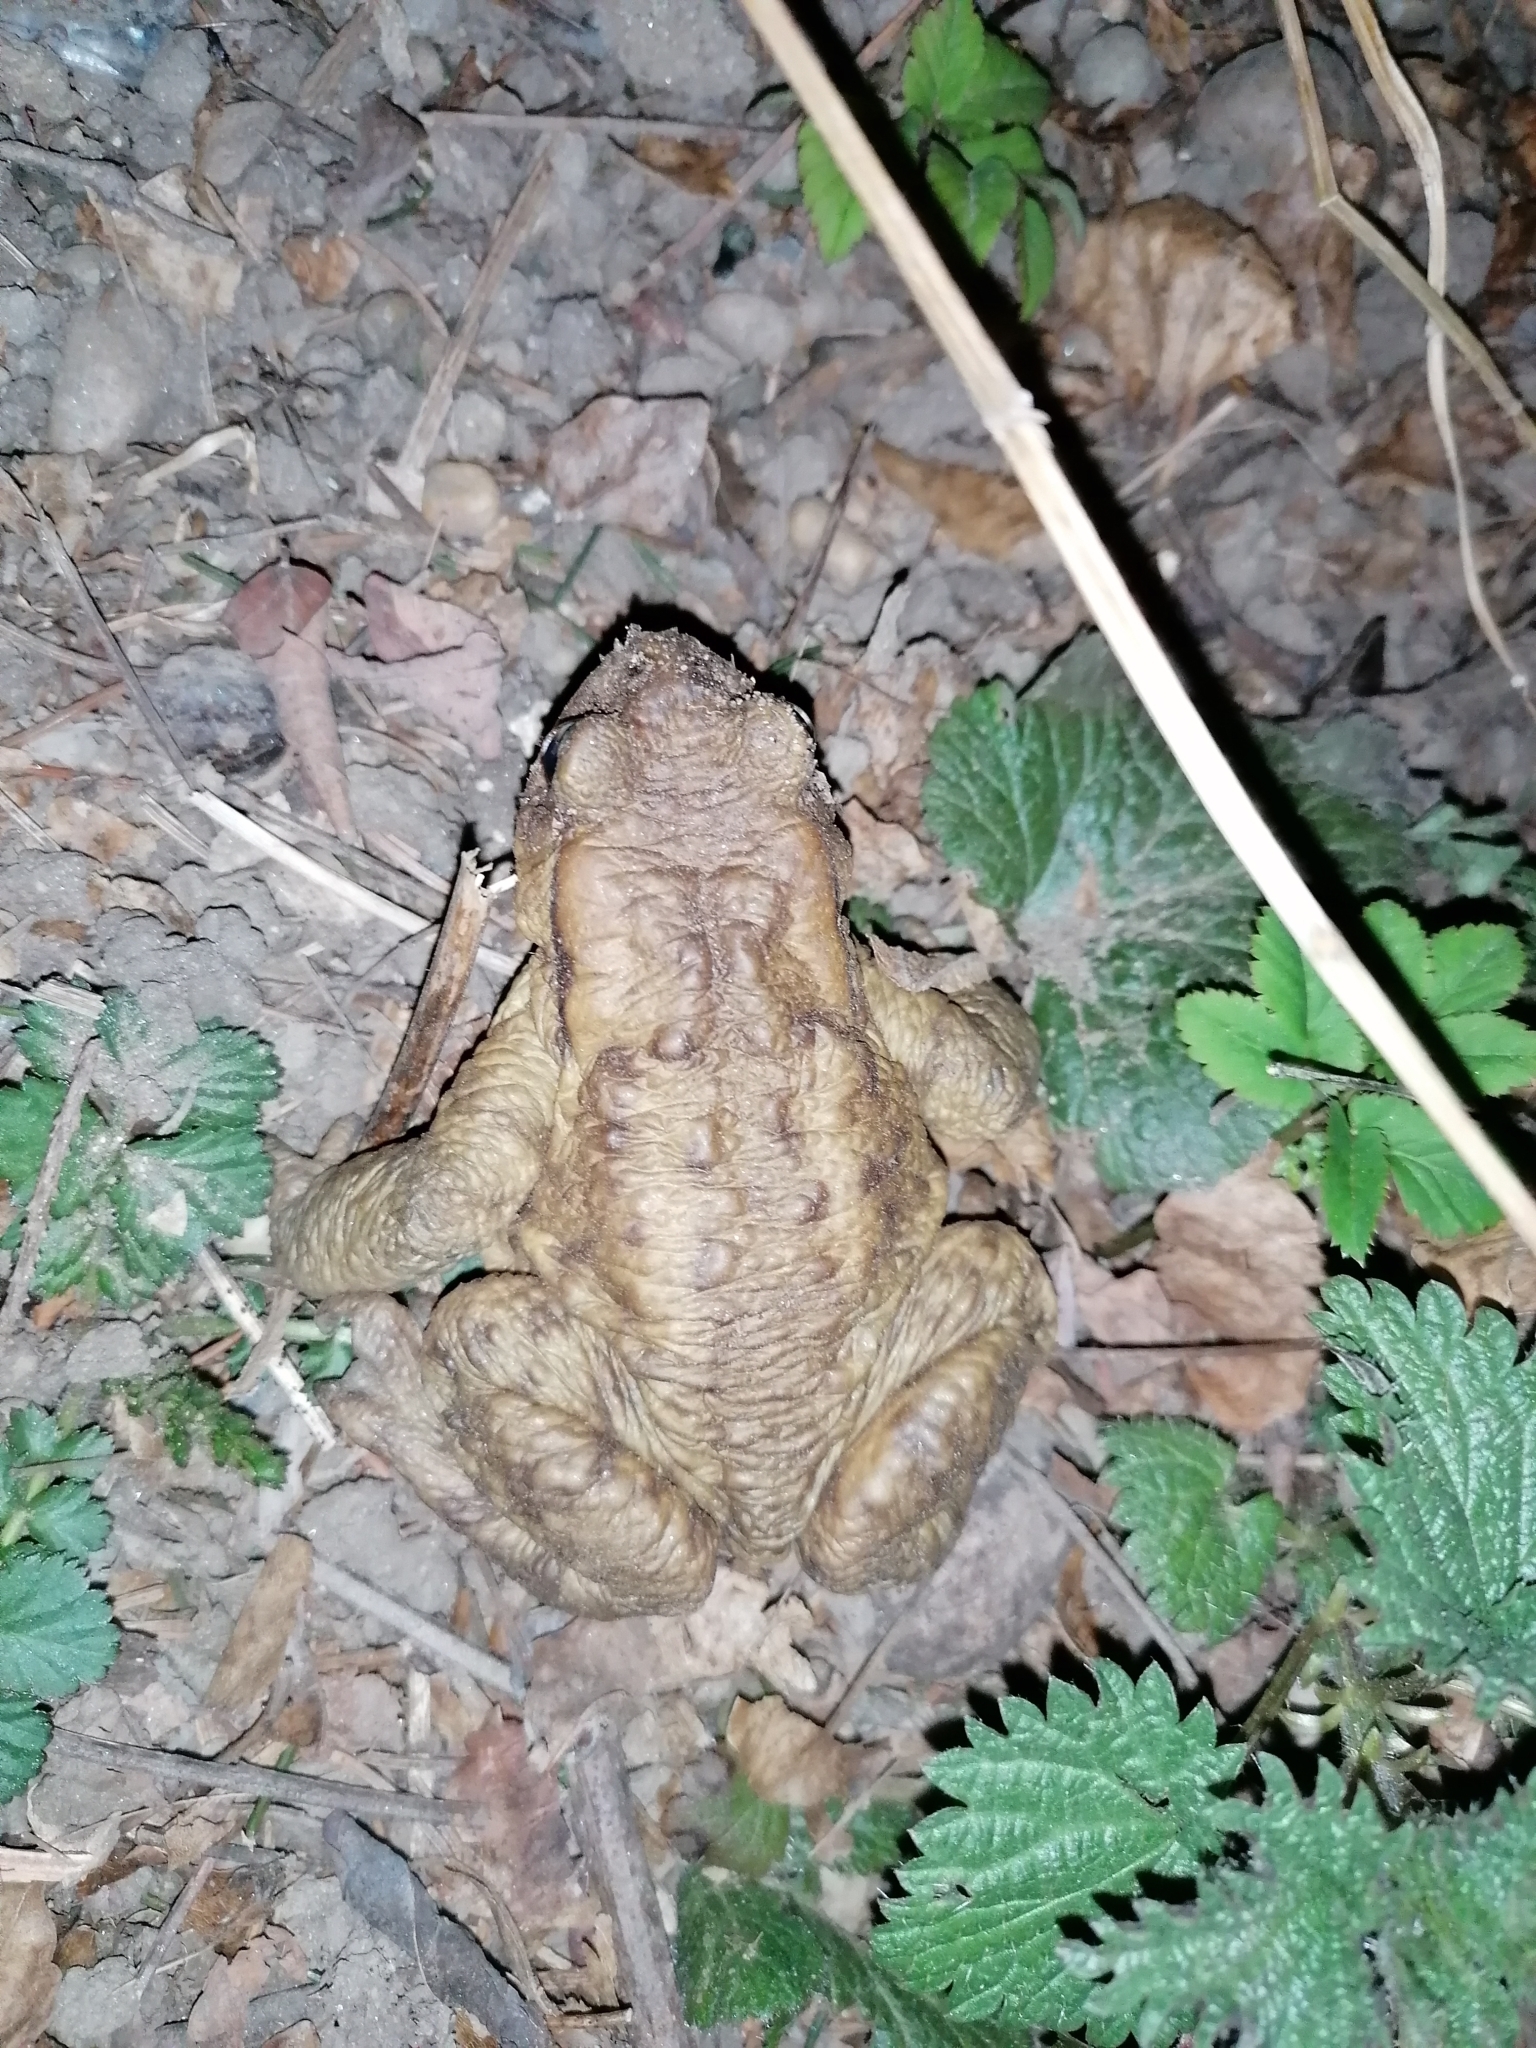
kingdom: Animalia
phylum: Chordata
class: Amphibia
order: Anura
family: Bufonidae
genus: Bufo
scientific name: Bufo bufo
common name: Common toad
